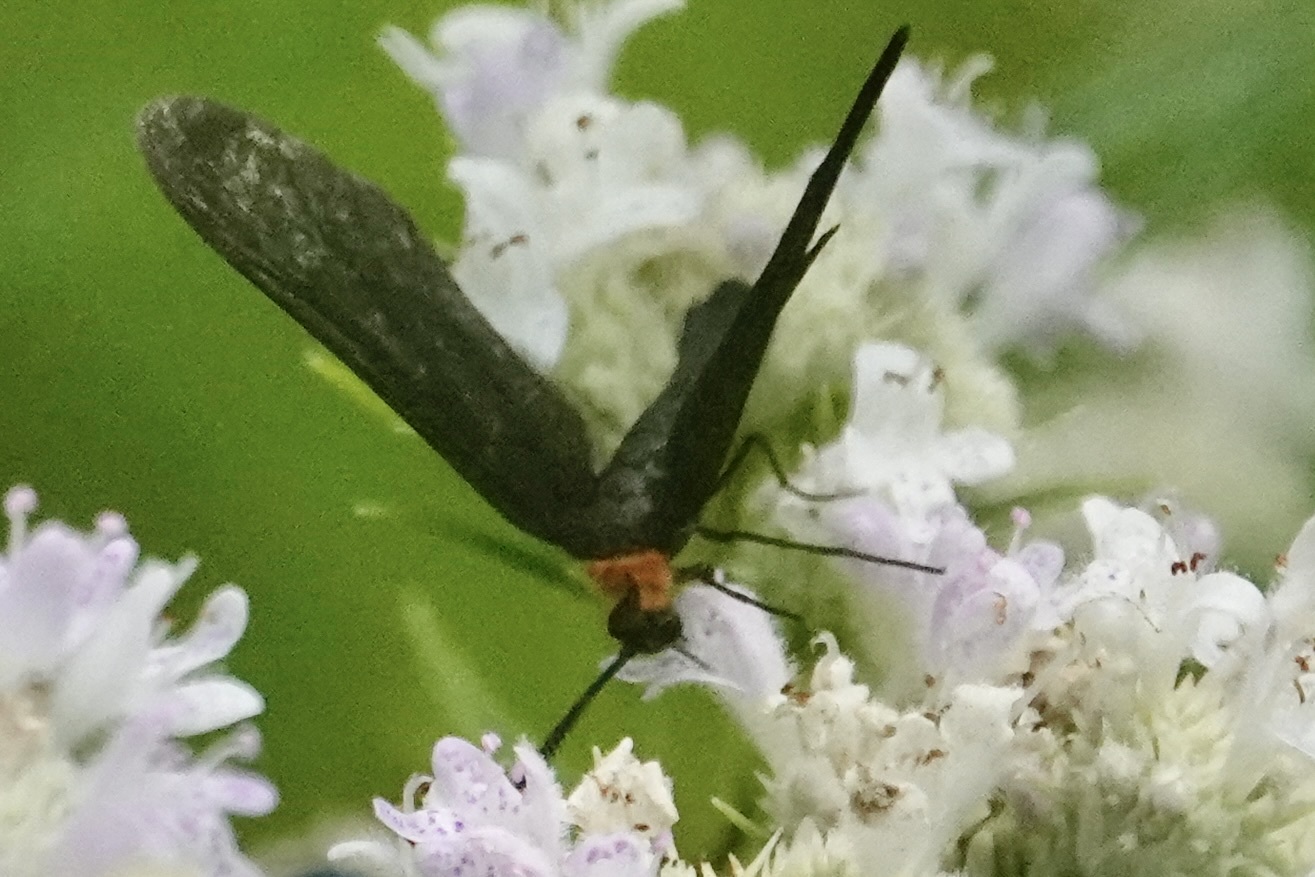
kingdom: Animalia
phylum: Arthropoda
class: Insecta
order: Lepidoptera
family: Zygaenidae
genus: Harrisina
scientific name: Harrisina americana
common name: Grapeleaf skeletonizer moth
